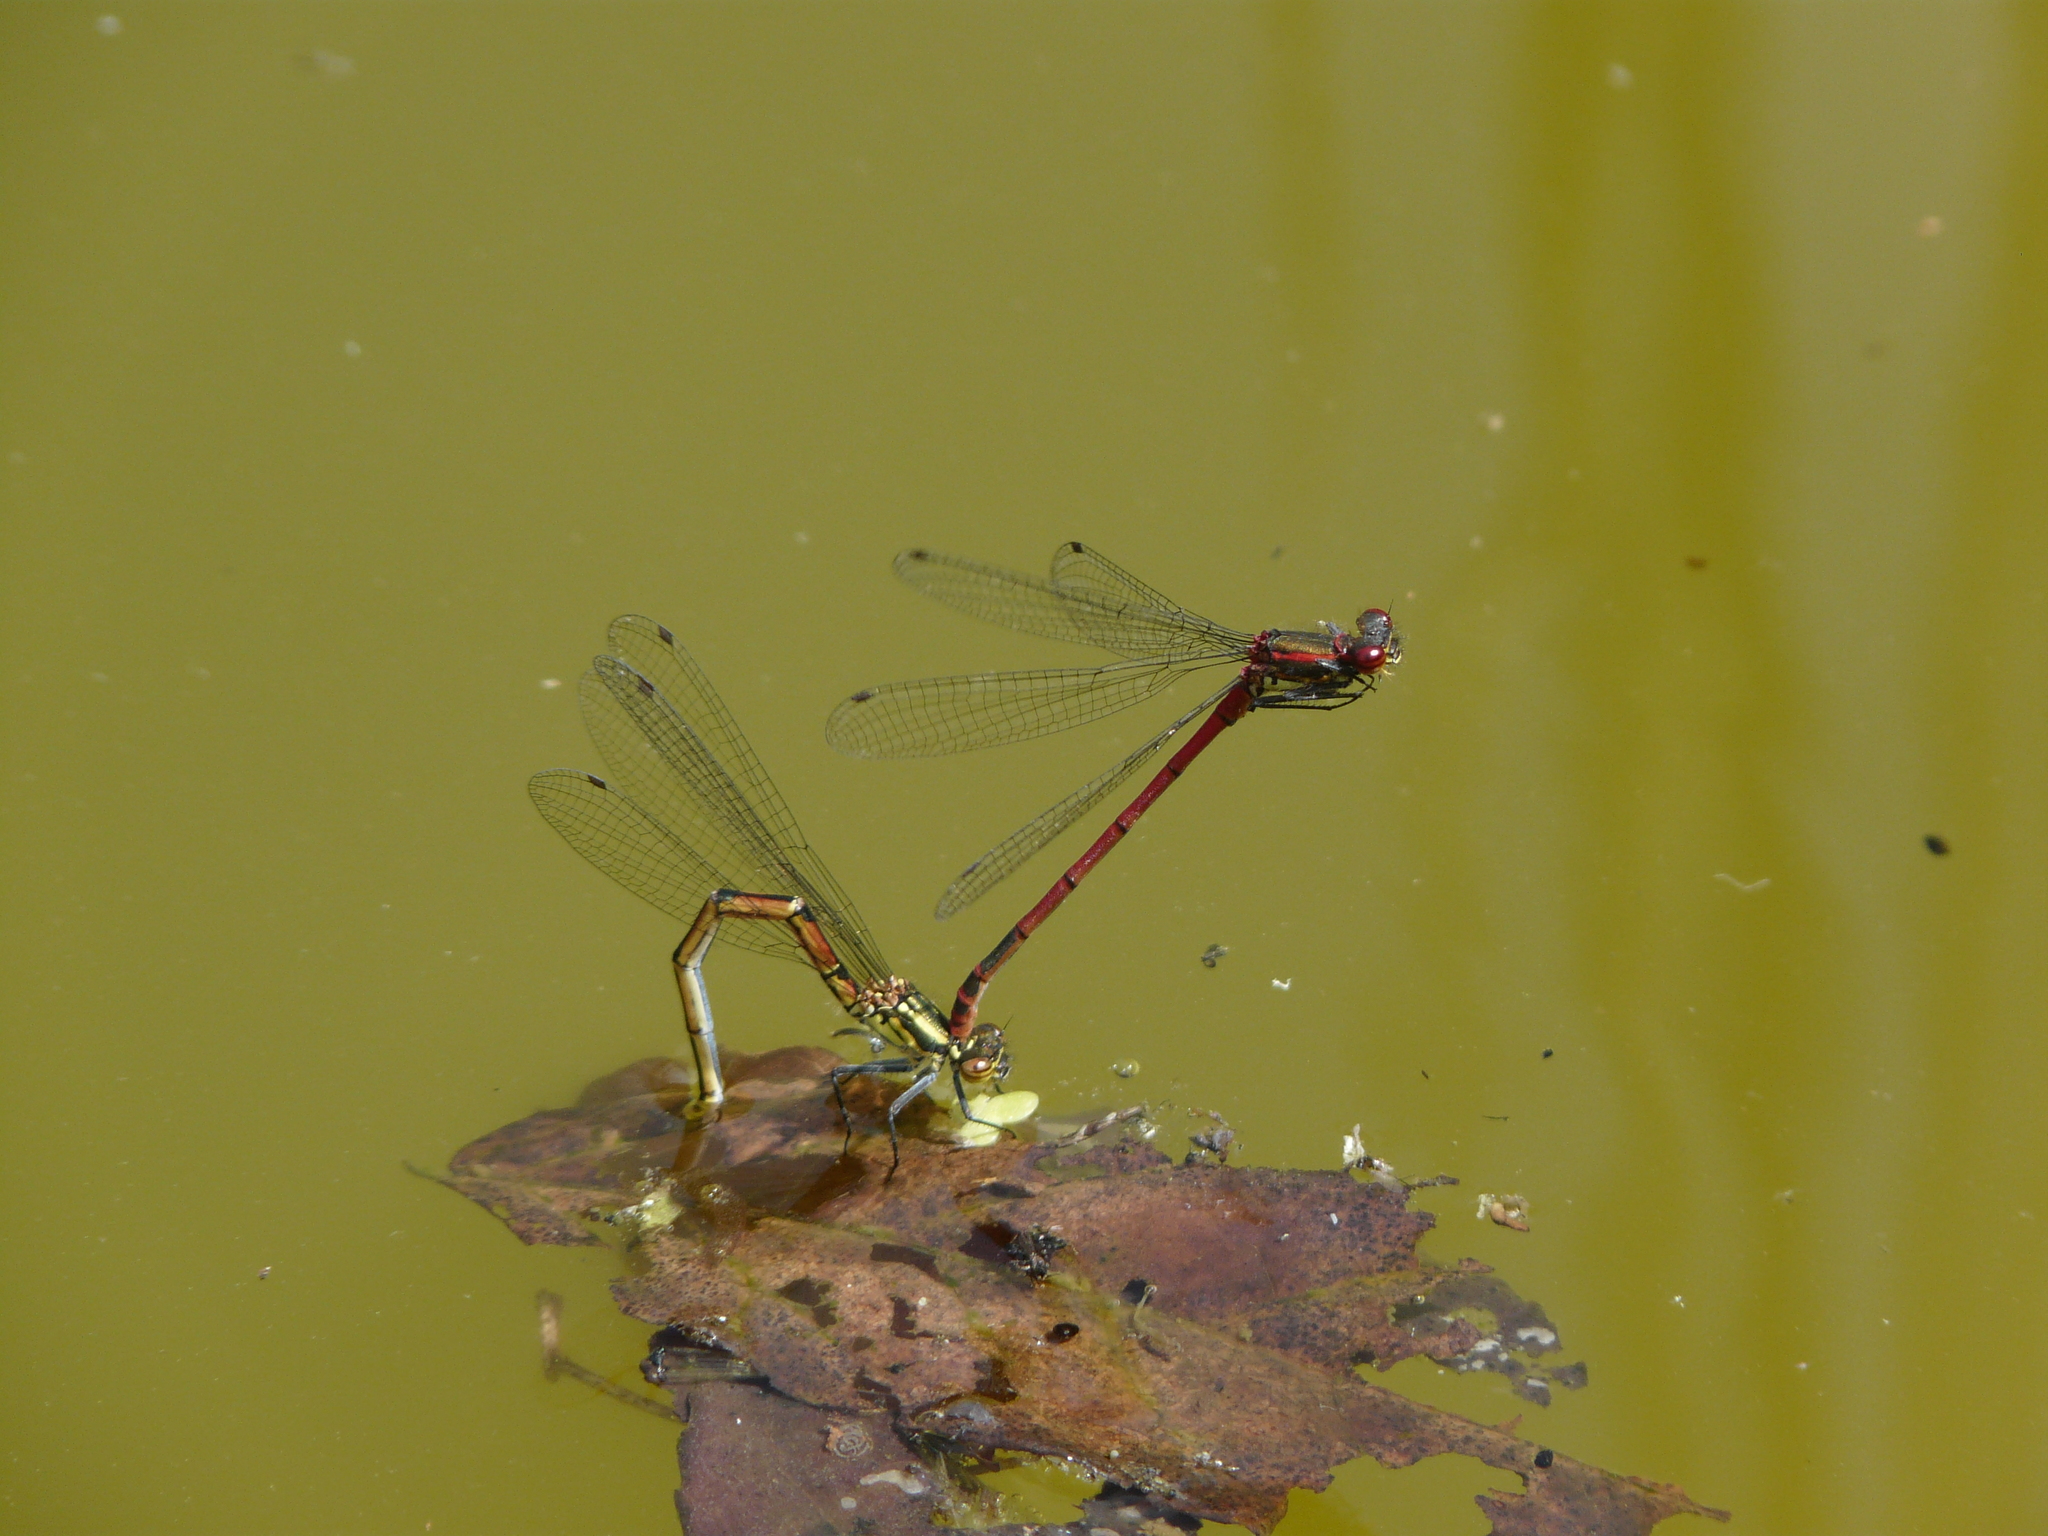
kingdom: Animalia
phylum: Arthropoda
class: Insecta
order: Odonata
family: Coenagrionidae
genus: Pyrrhosoma
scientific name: Pyrrhosoma nymphula
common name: Large red damsel
